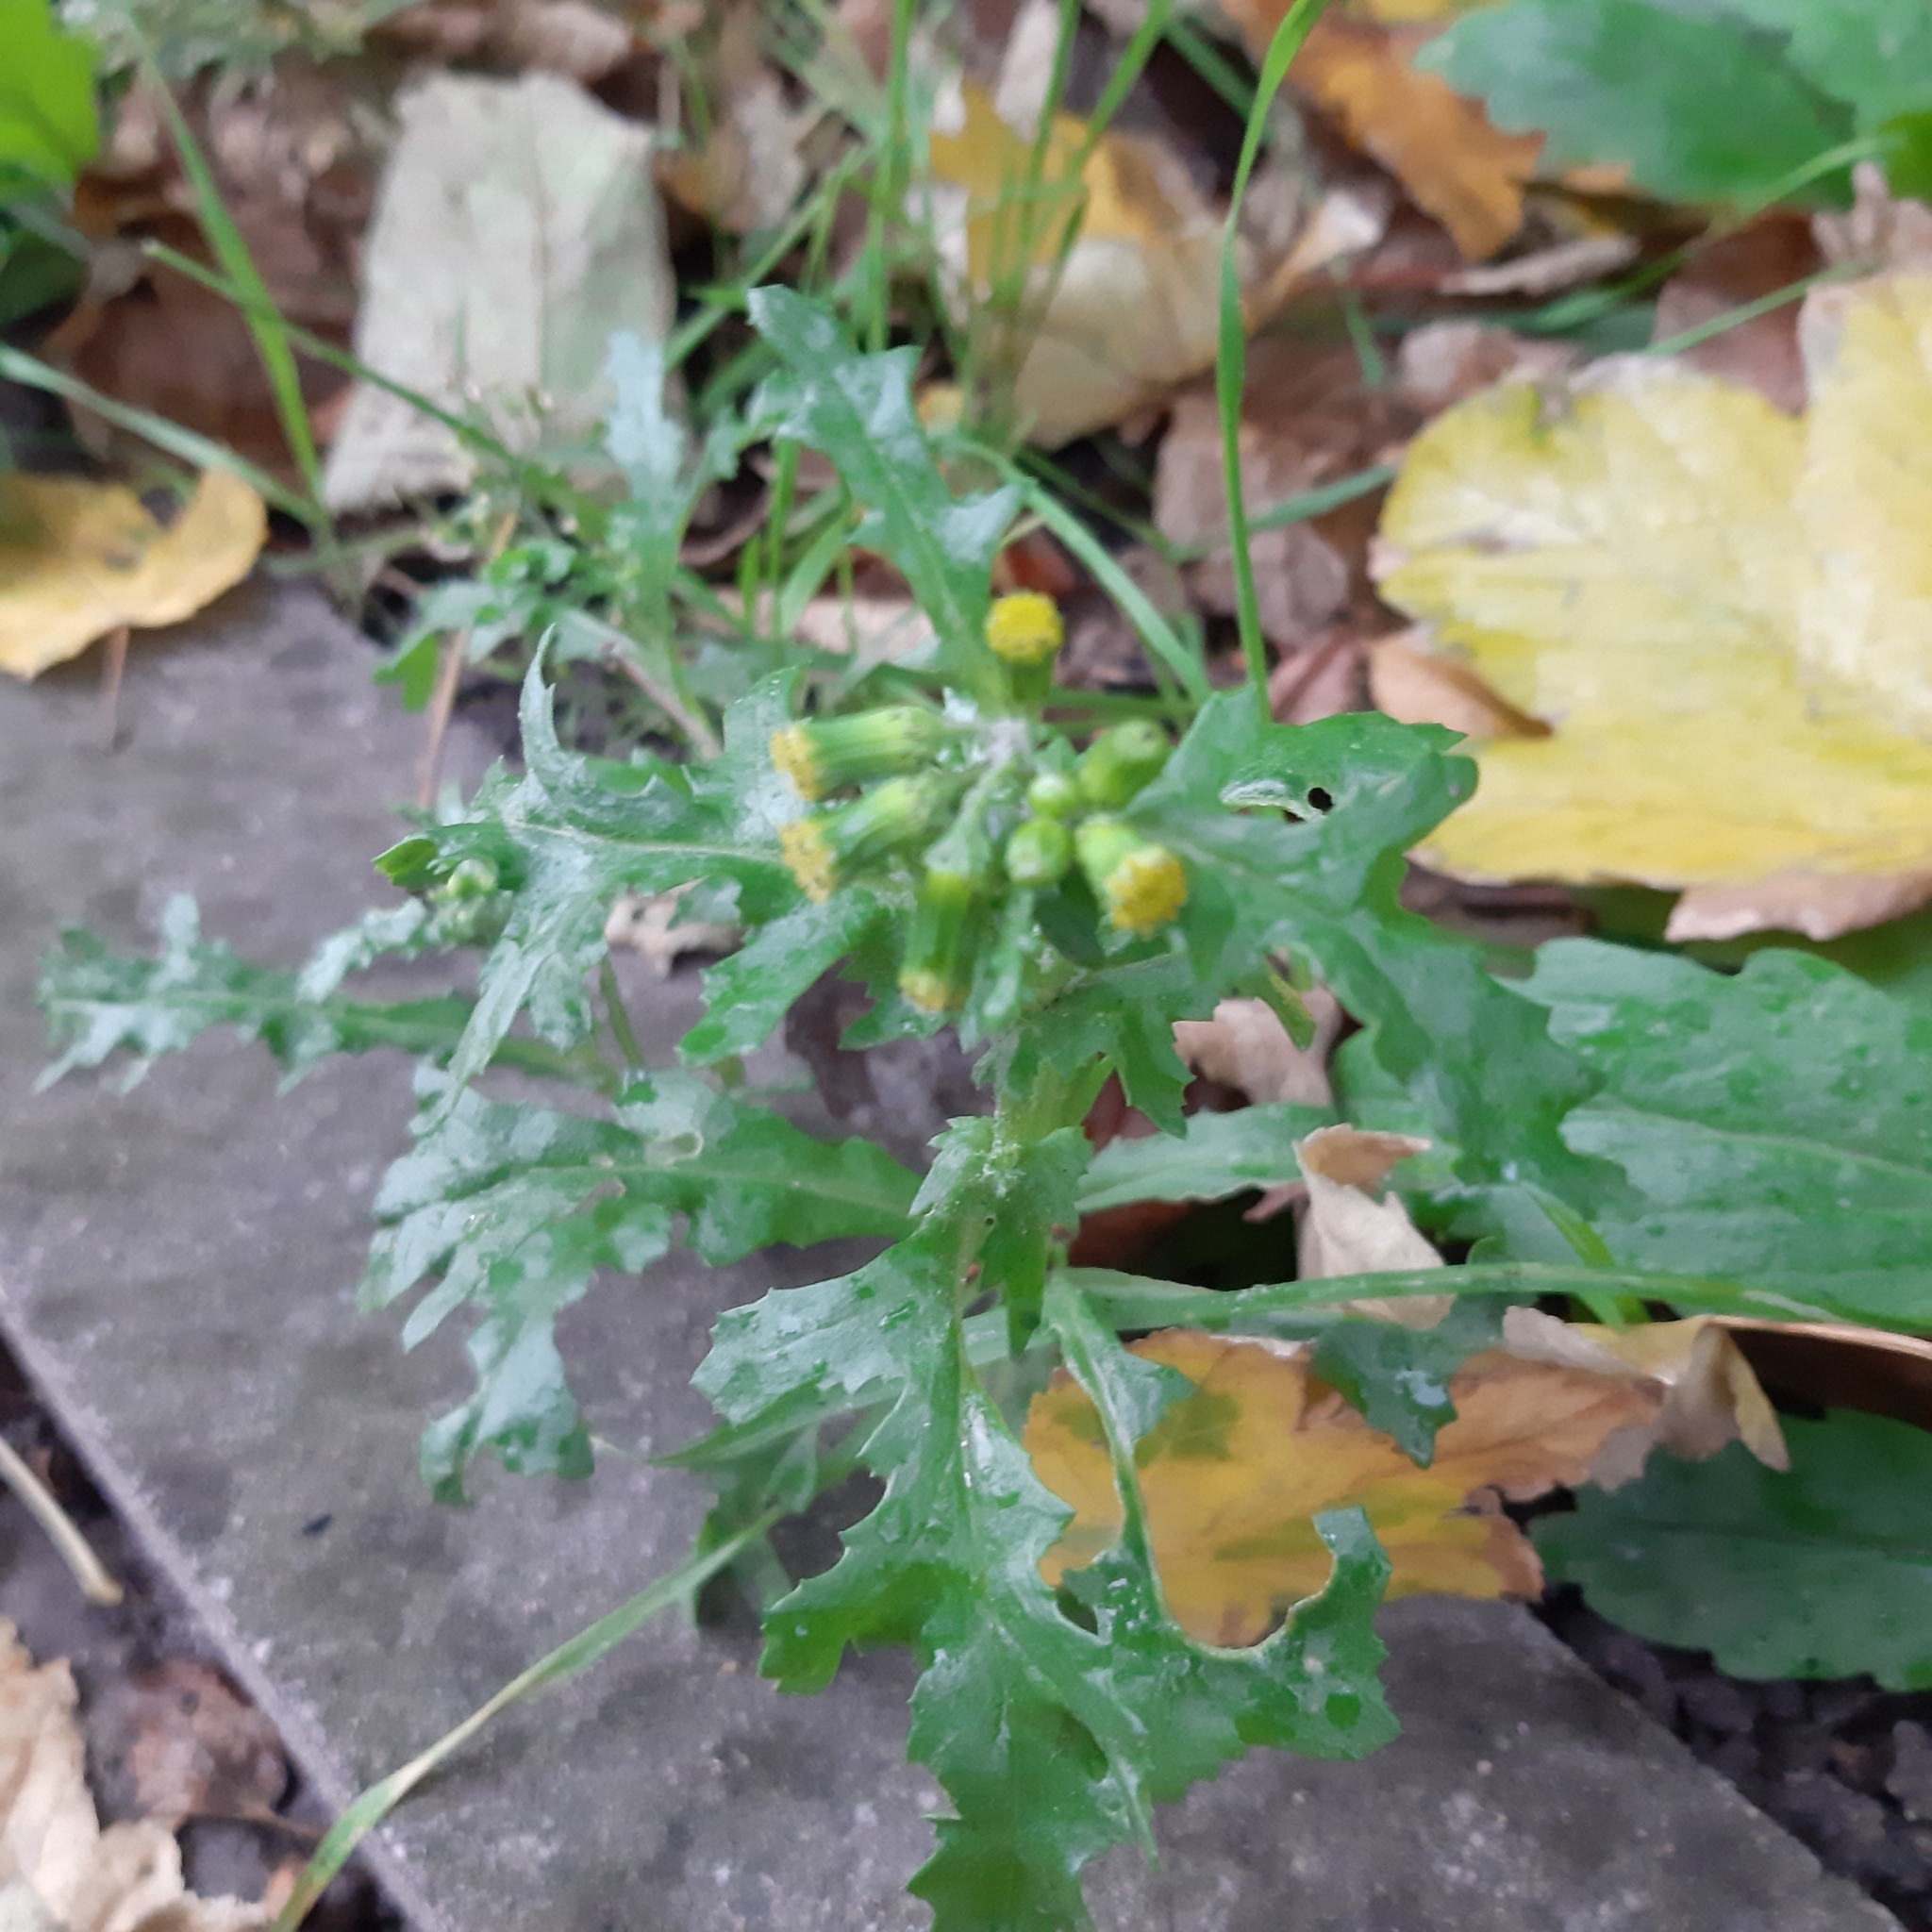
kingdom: Plantae
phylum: Tracheophyta
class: Magnoliopsida
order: Asterales
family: Asteraceae
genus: Senecio
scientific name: Senecio vulgaris
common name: Old-man-in-the-spring
